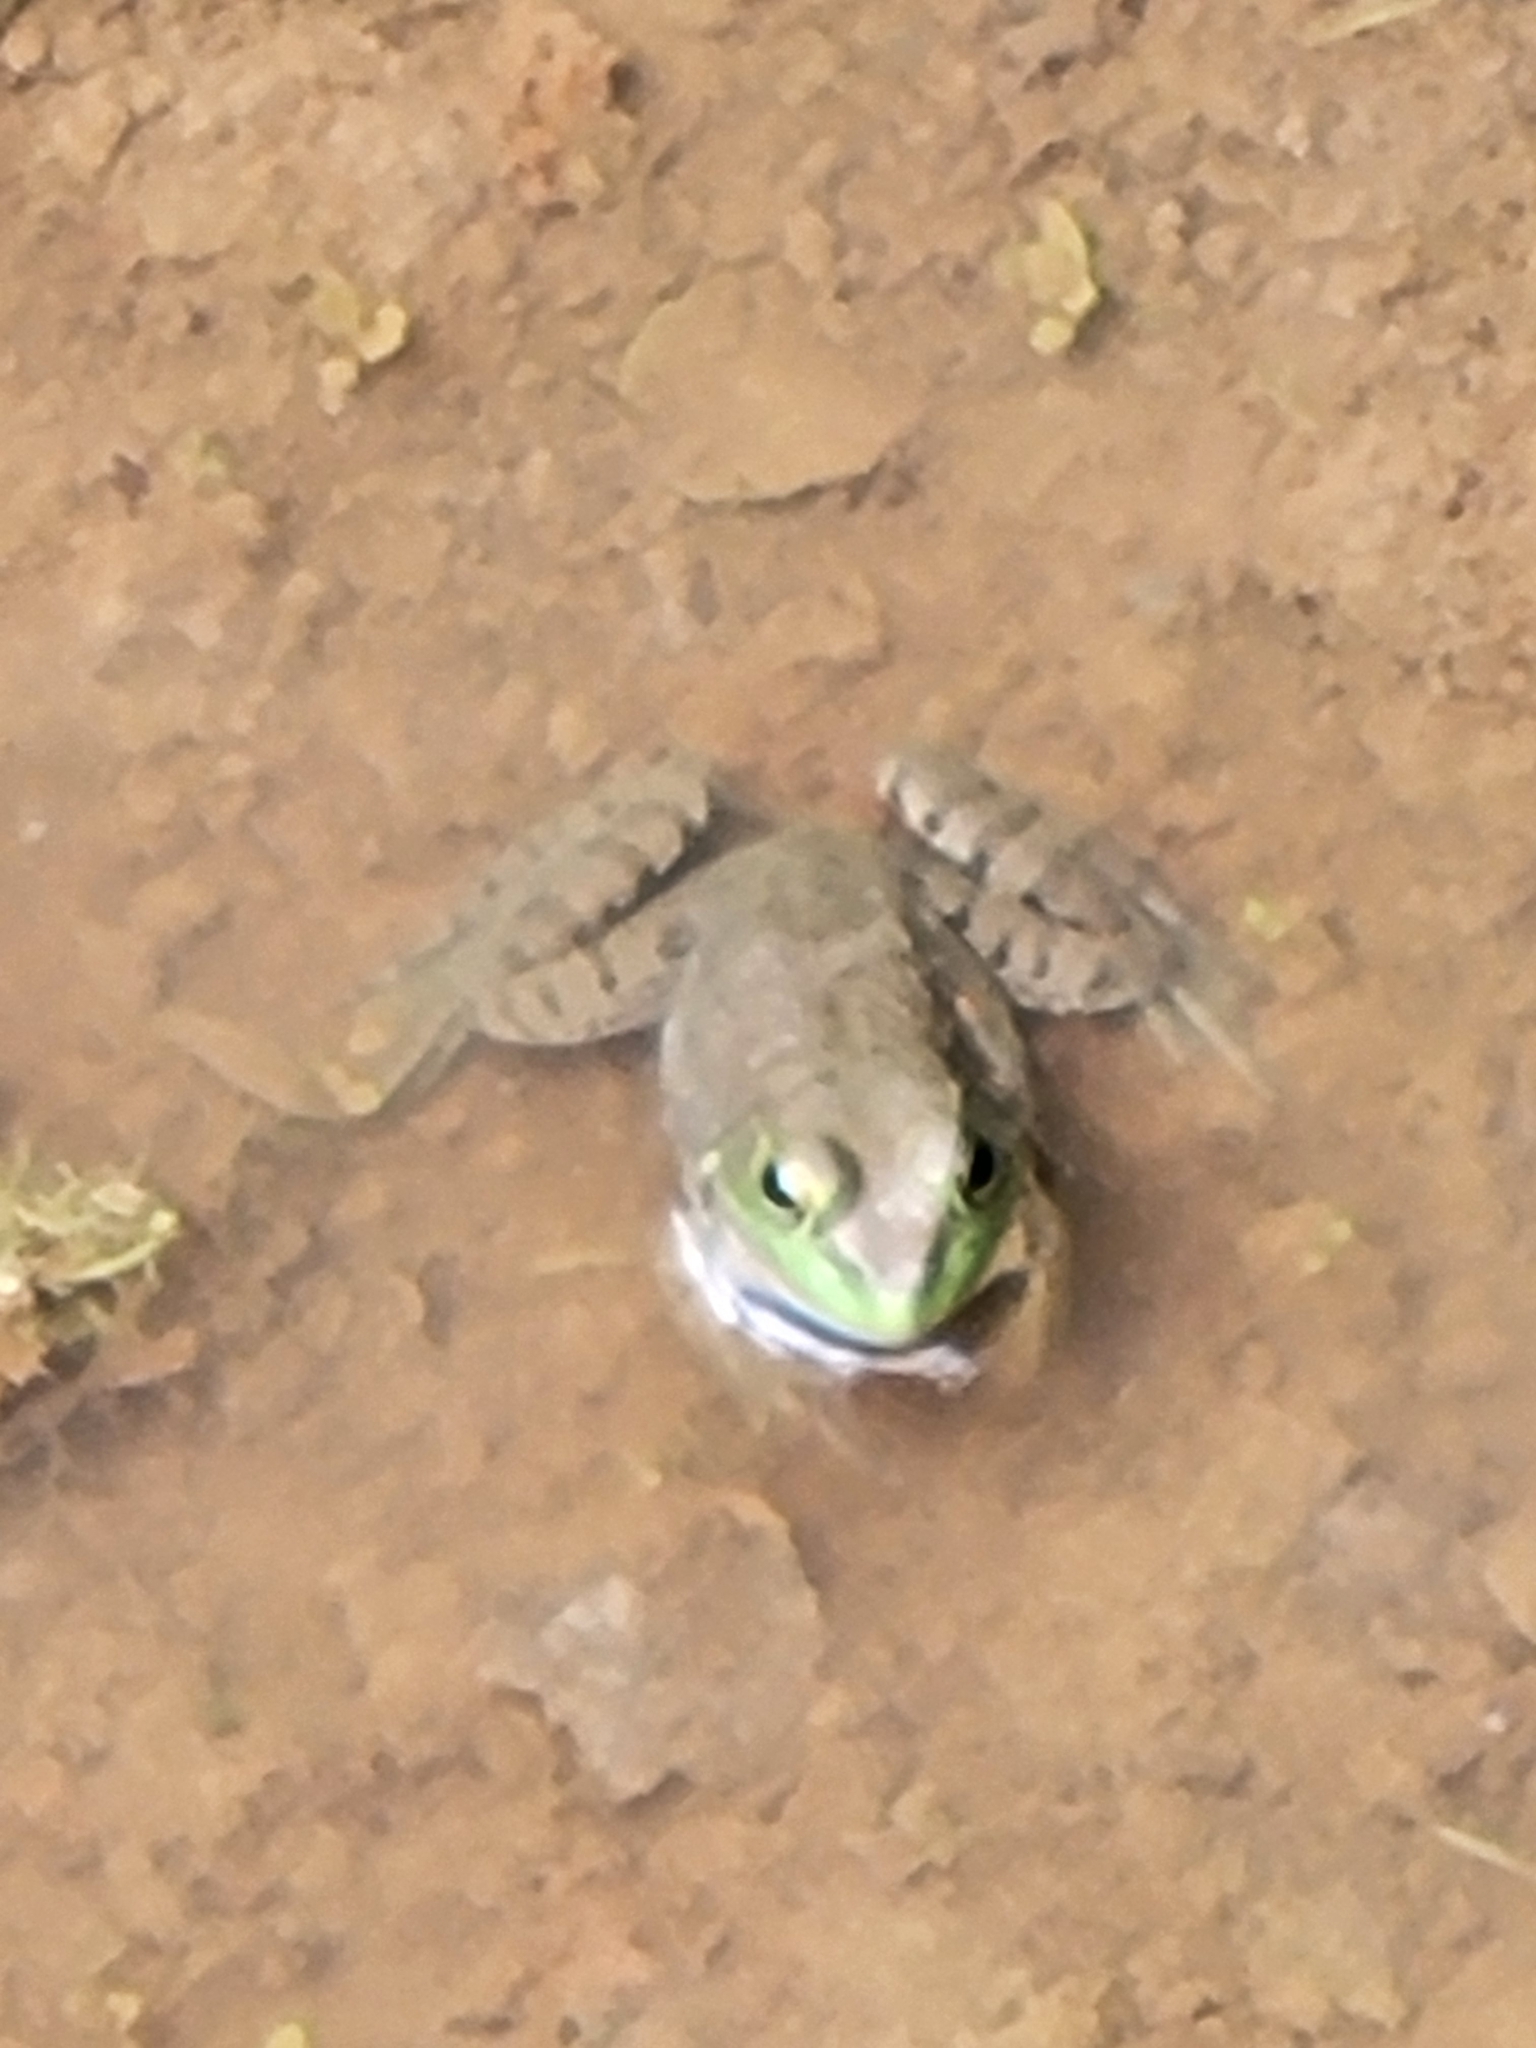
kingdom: Animalia
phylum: Chordata
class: Amphibia
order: Anura
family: Ranidae
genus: Lithobates
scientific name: Lithobates catesbeianus
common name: American bullfrog
